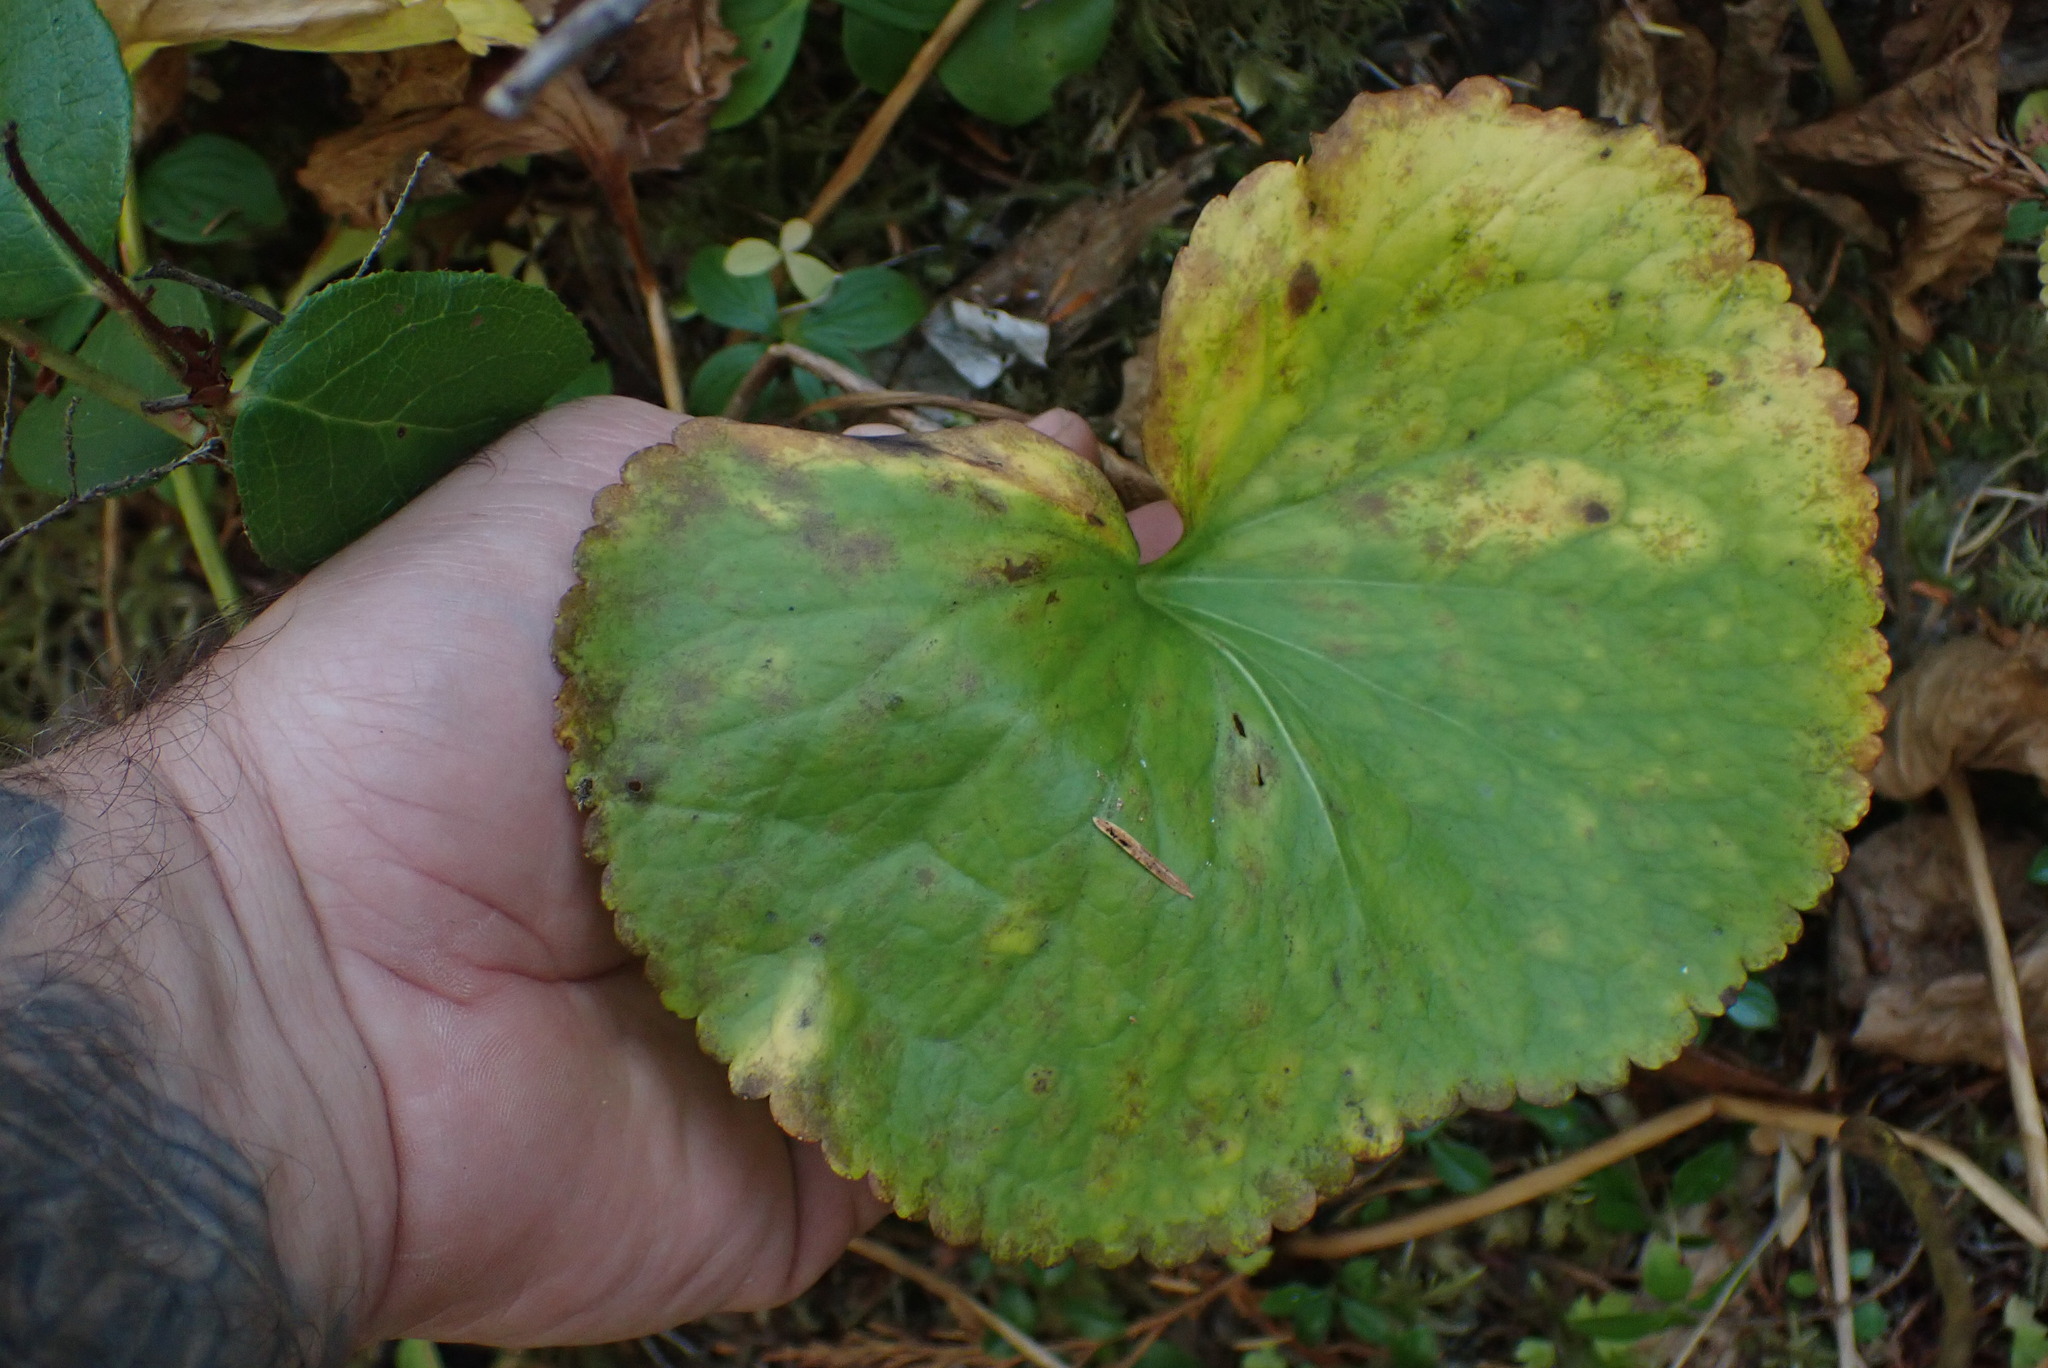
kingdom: Plantae
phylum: Tracheophyta
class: Magnoliopsida
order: Asterales
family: Menyanthaceae
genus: Nephrophyllidium
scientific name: Nephrophyllidium crista-galli
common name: Deer-cabbage
